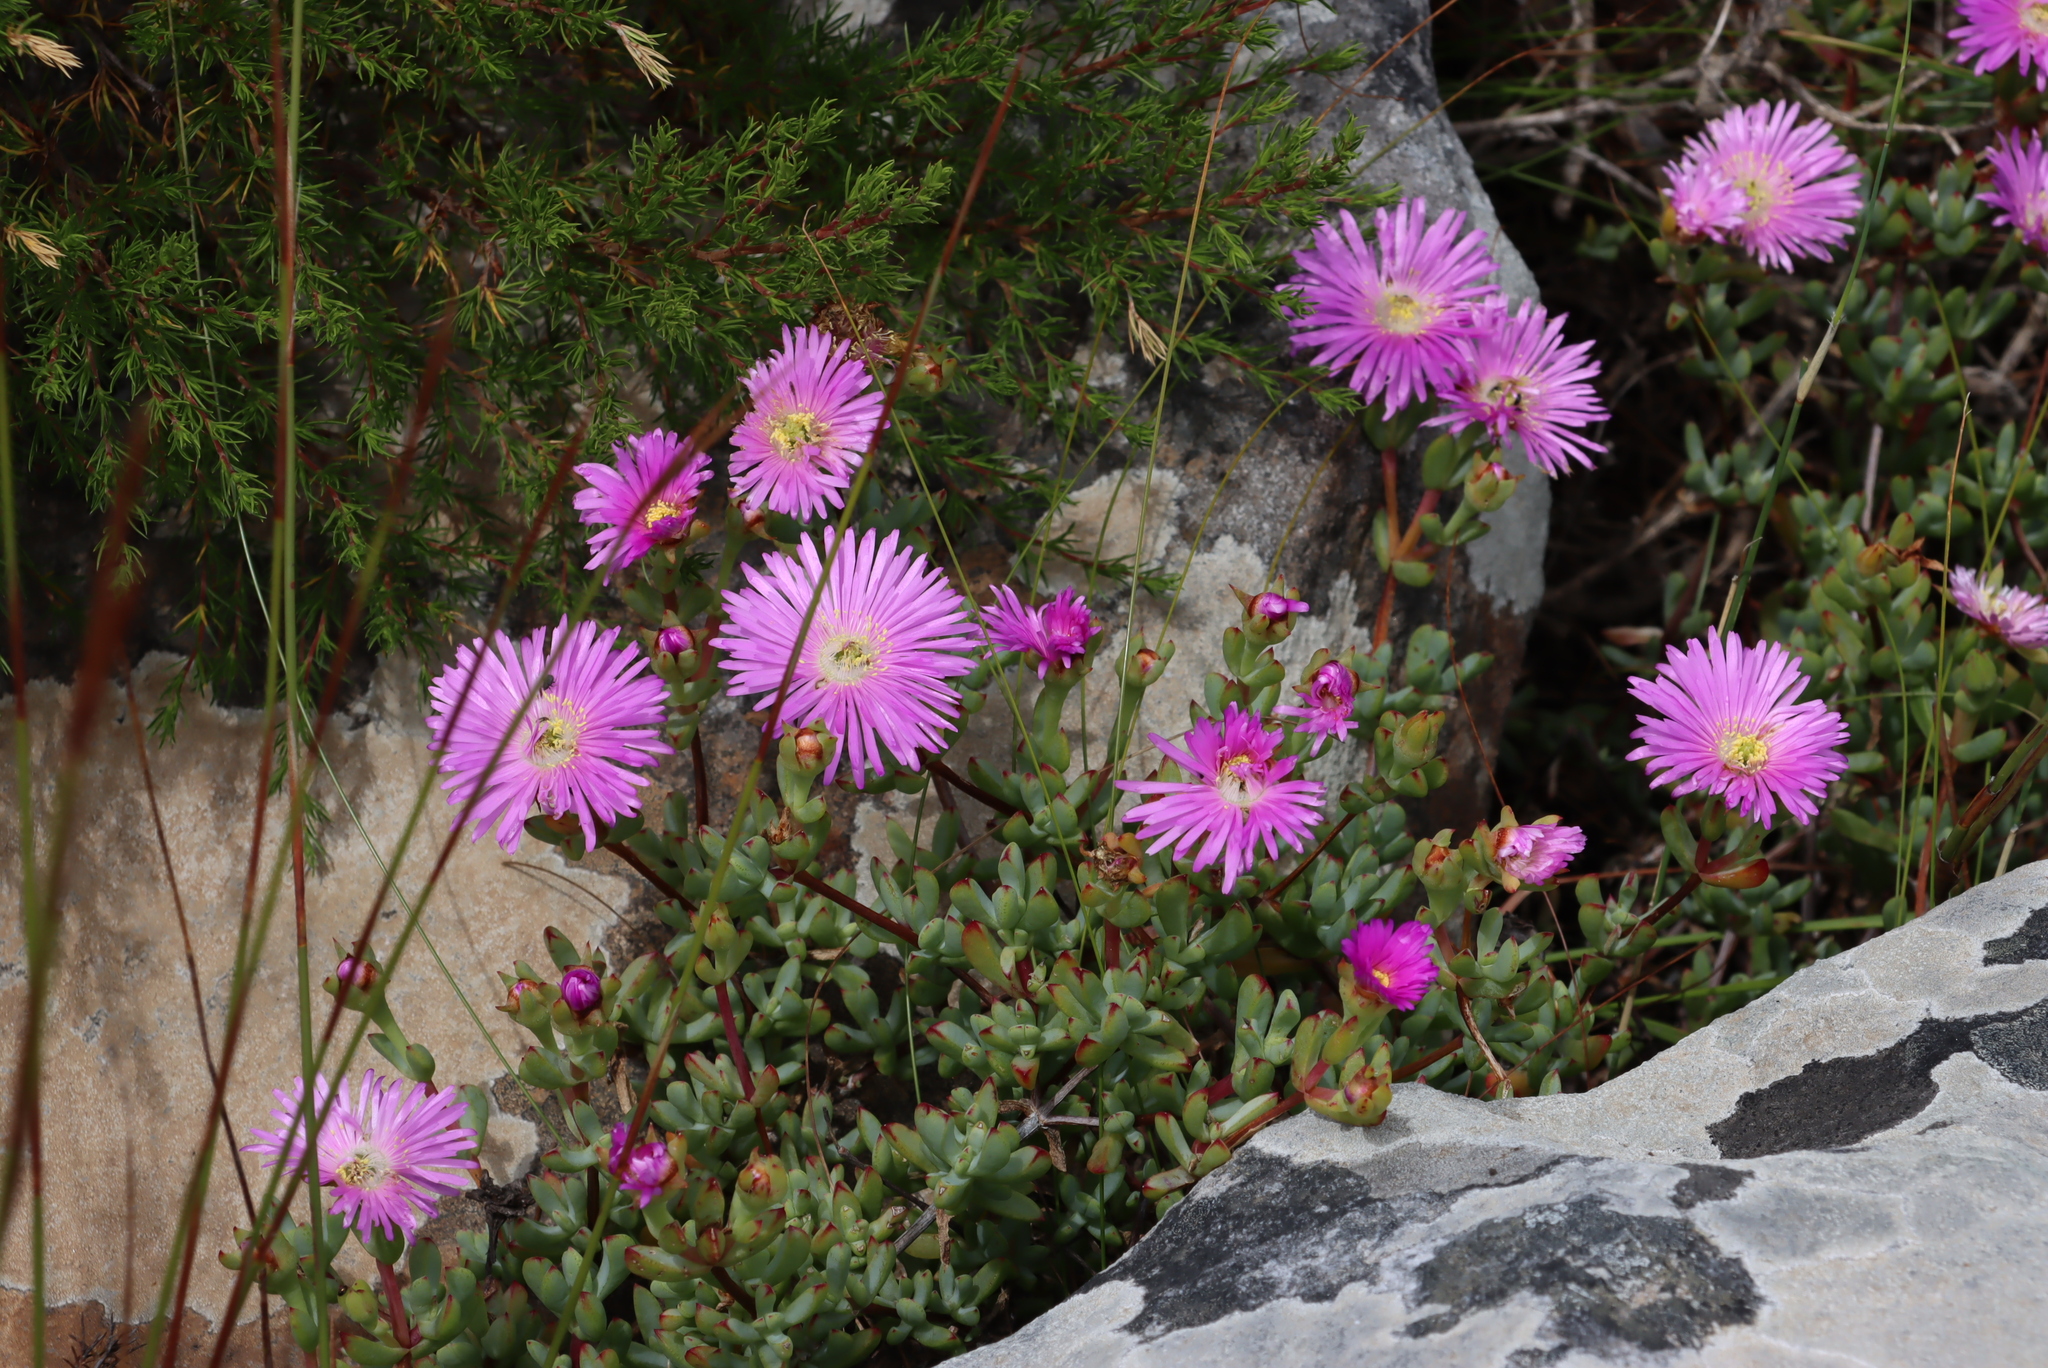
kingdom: Plantae
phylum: Tracheophyta
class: Magnoliopsida
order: Caryophyllales
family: Aizoaceae
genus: Oscularia
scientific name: Oscularia falciformis
